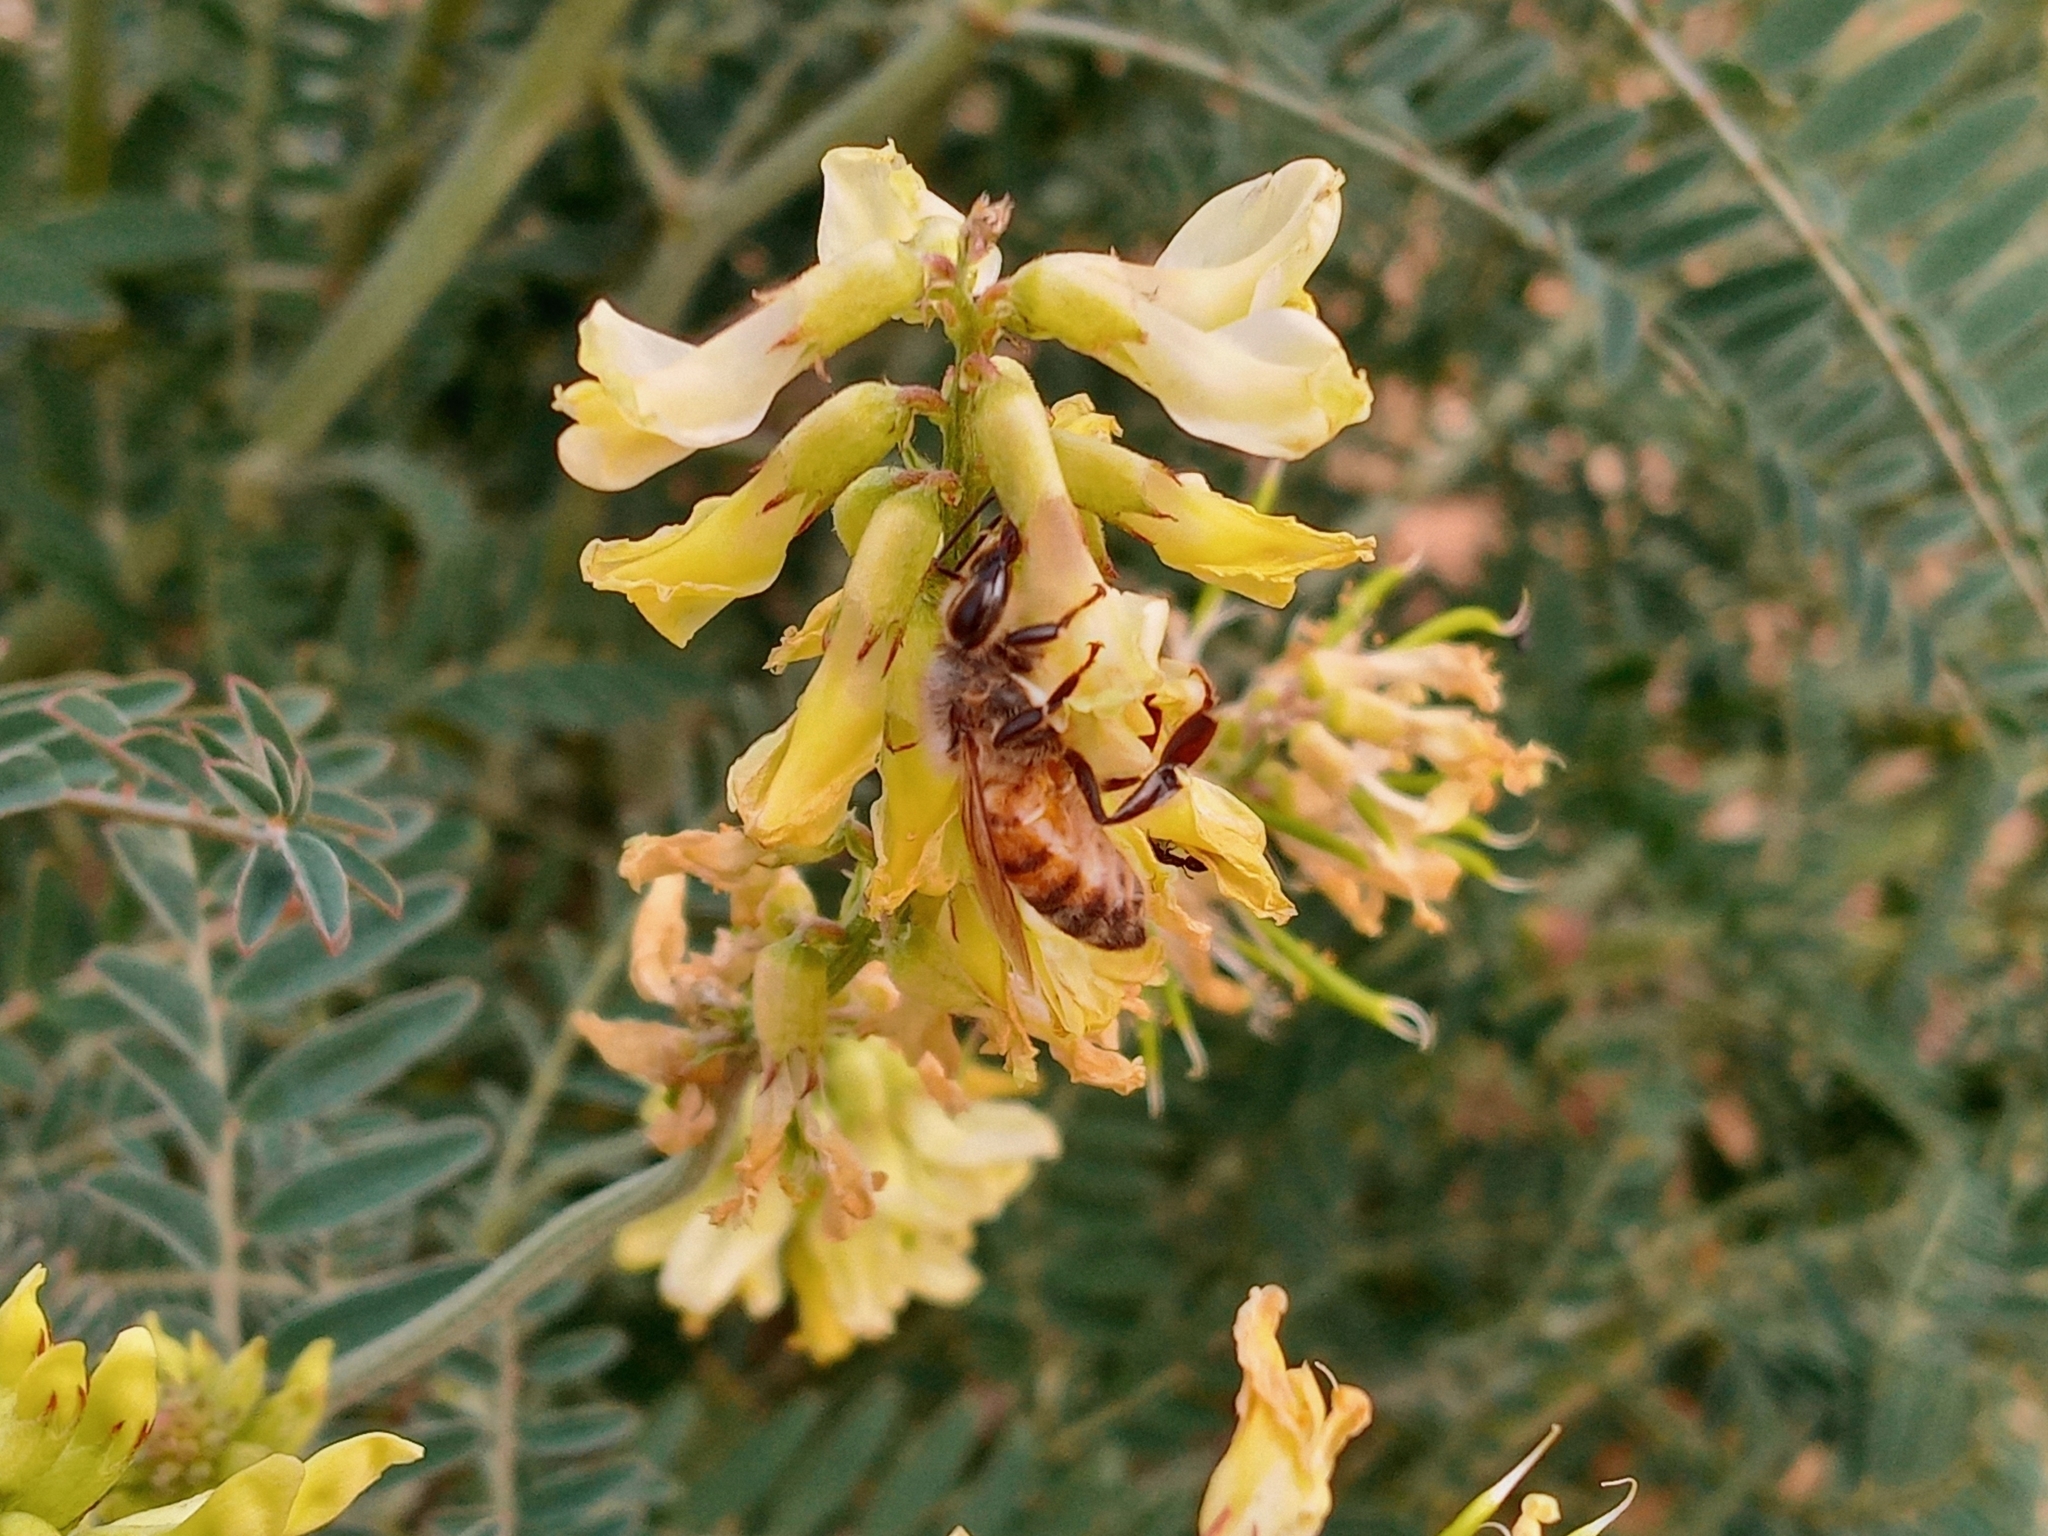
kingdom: Plantae
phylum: Tracheophyta
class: Magnoliopsida
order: Fabales
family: Fabaceae
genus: Astragalus
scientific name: Astragalus trichopodus
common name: Santa barbara milk-vetch
